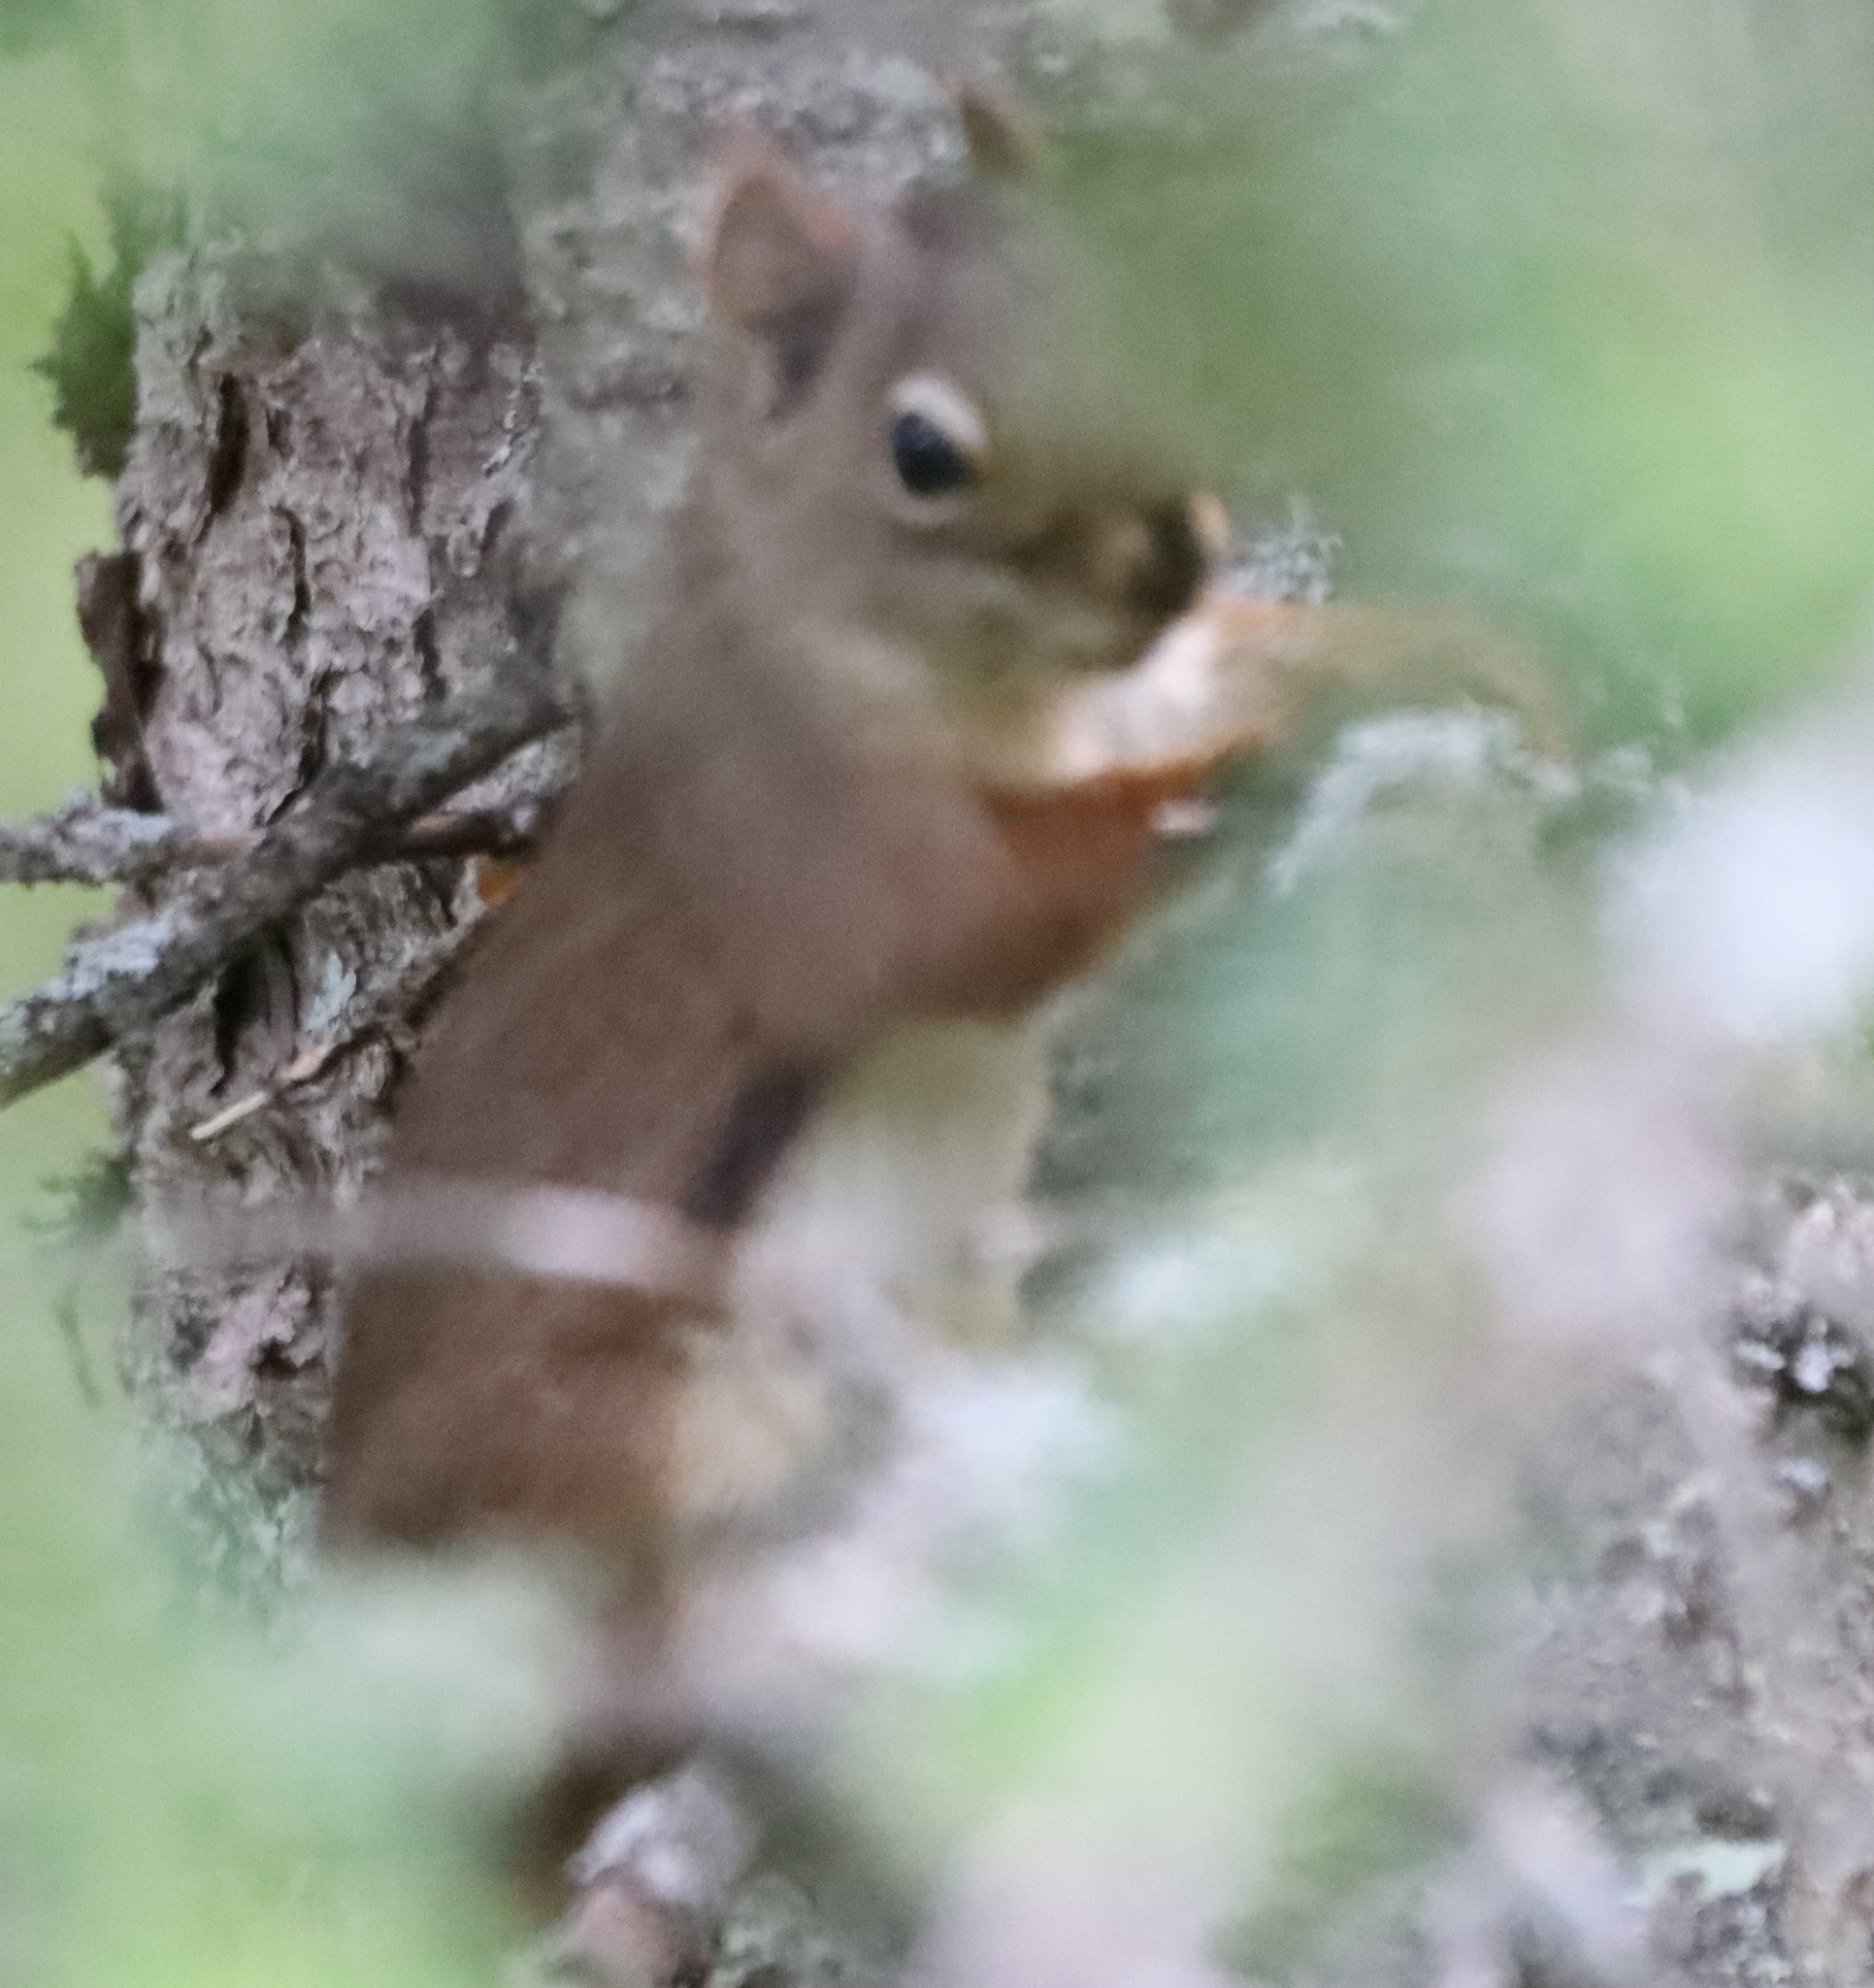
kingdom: Animalia
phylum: Chordata
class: Mammalia
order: Rodentia
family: Sciuridae
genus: Tamiasciurus
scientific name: Tamiasciurus hudsonicus
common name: Red squirrel
